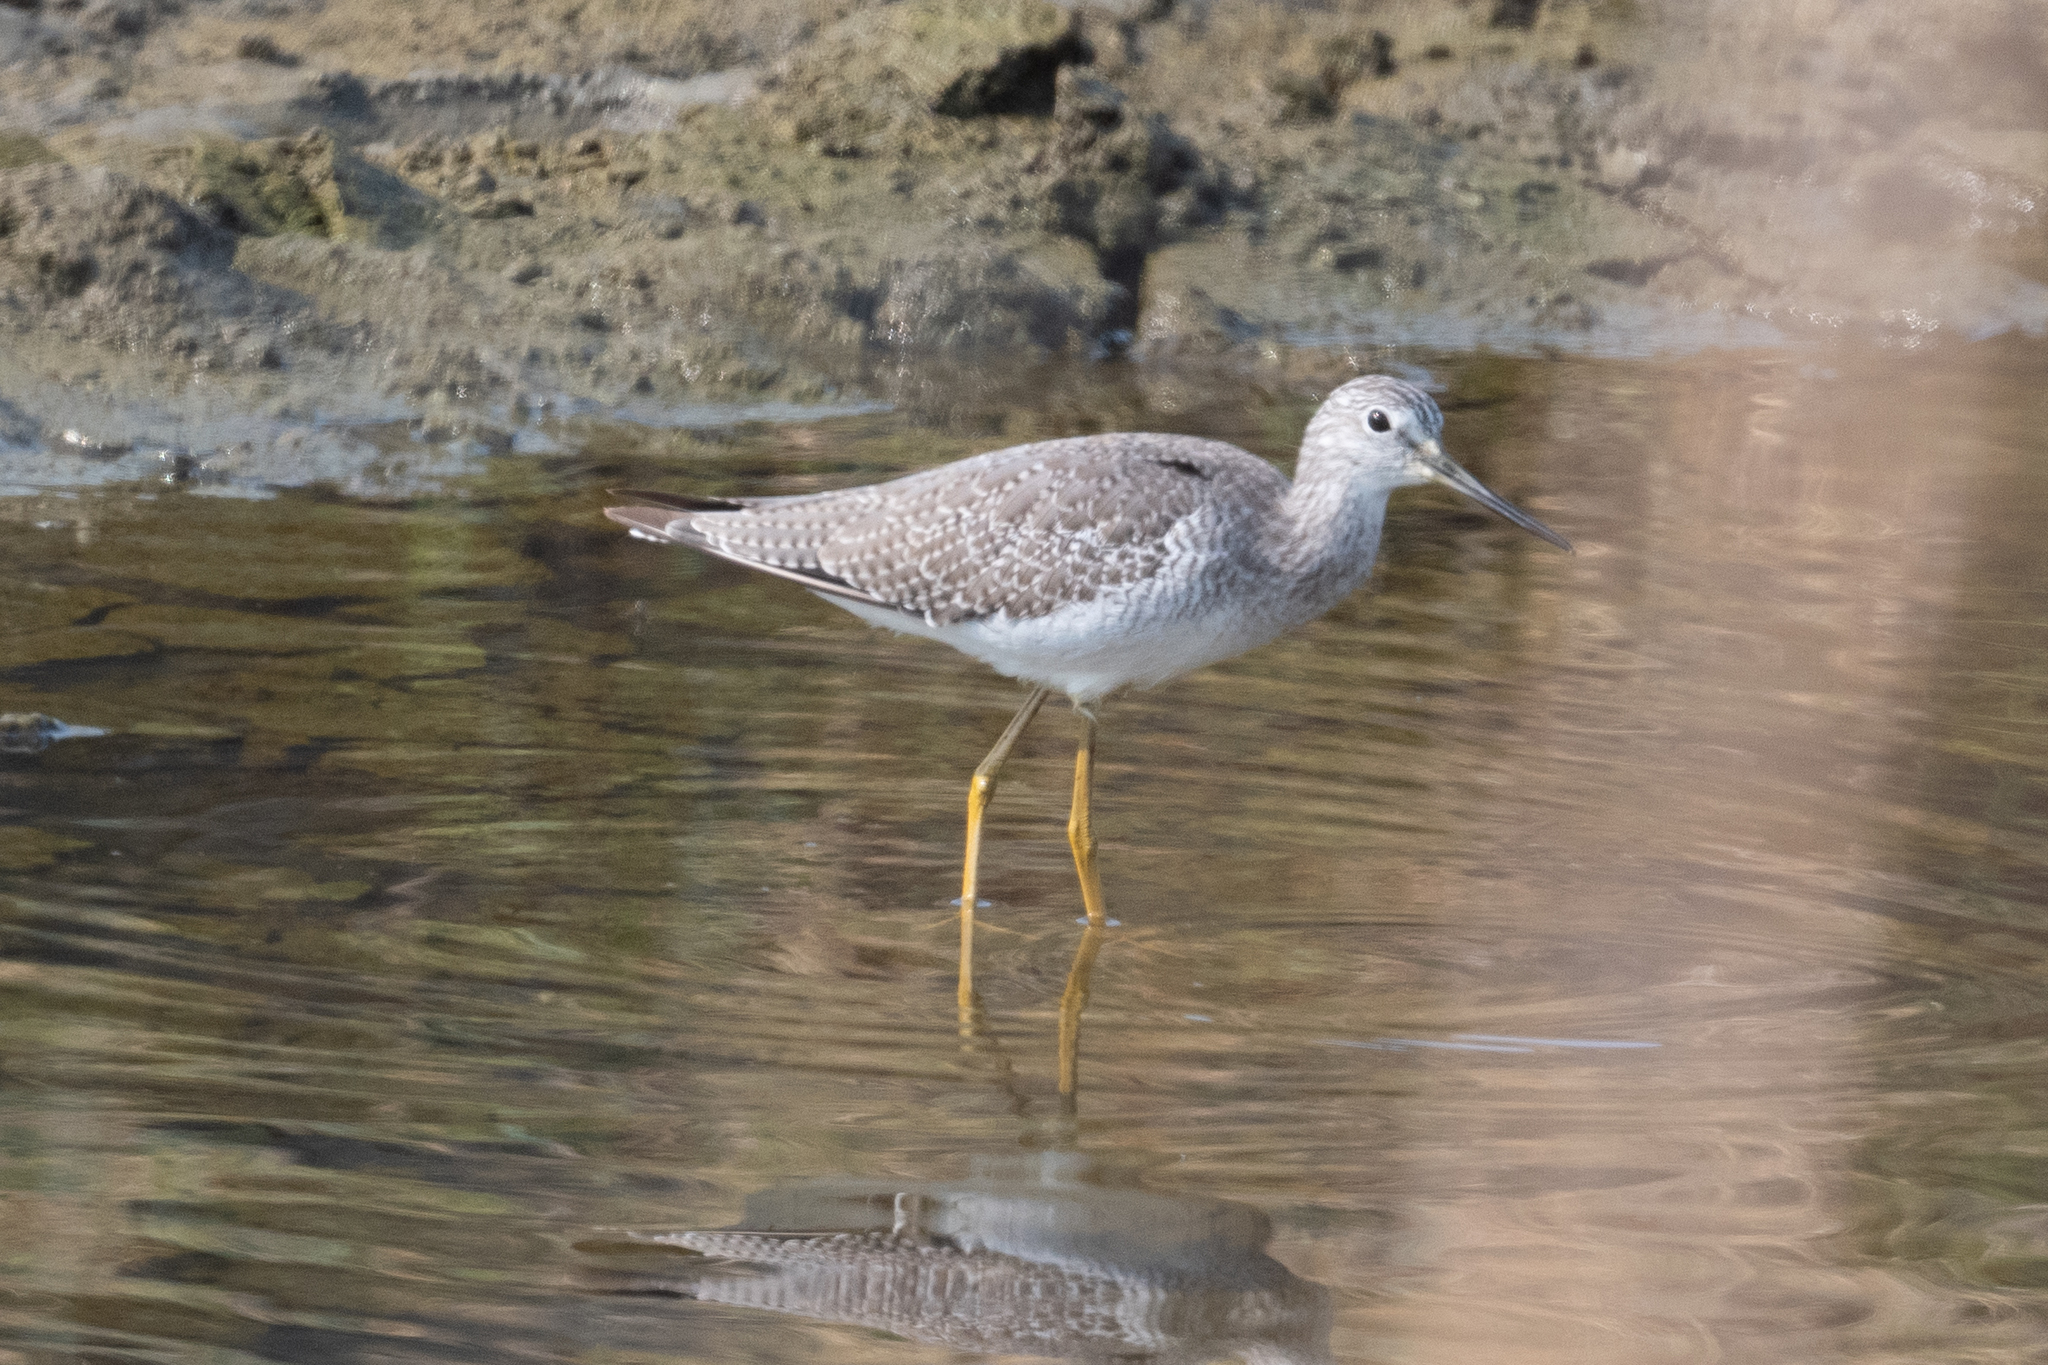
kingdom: Animalia
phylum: Chordata
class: Aves
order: Charadriiformes
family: Scolopacidae
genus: Tringa
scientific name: Tringa melanoleuca
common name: Greater yellowlegs
